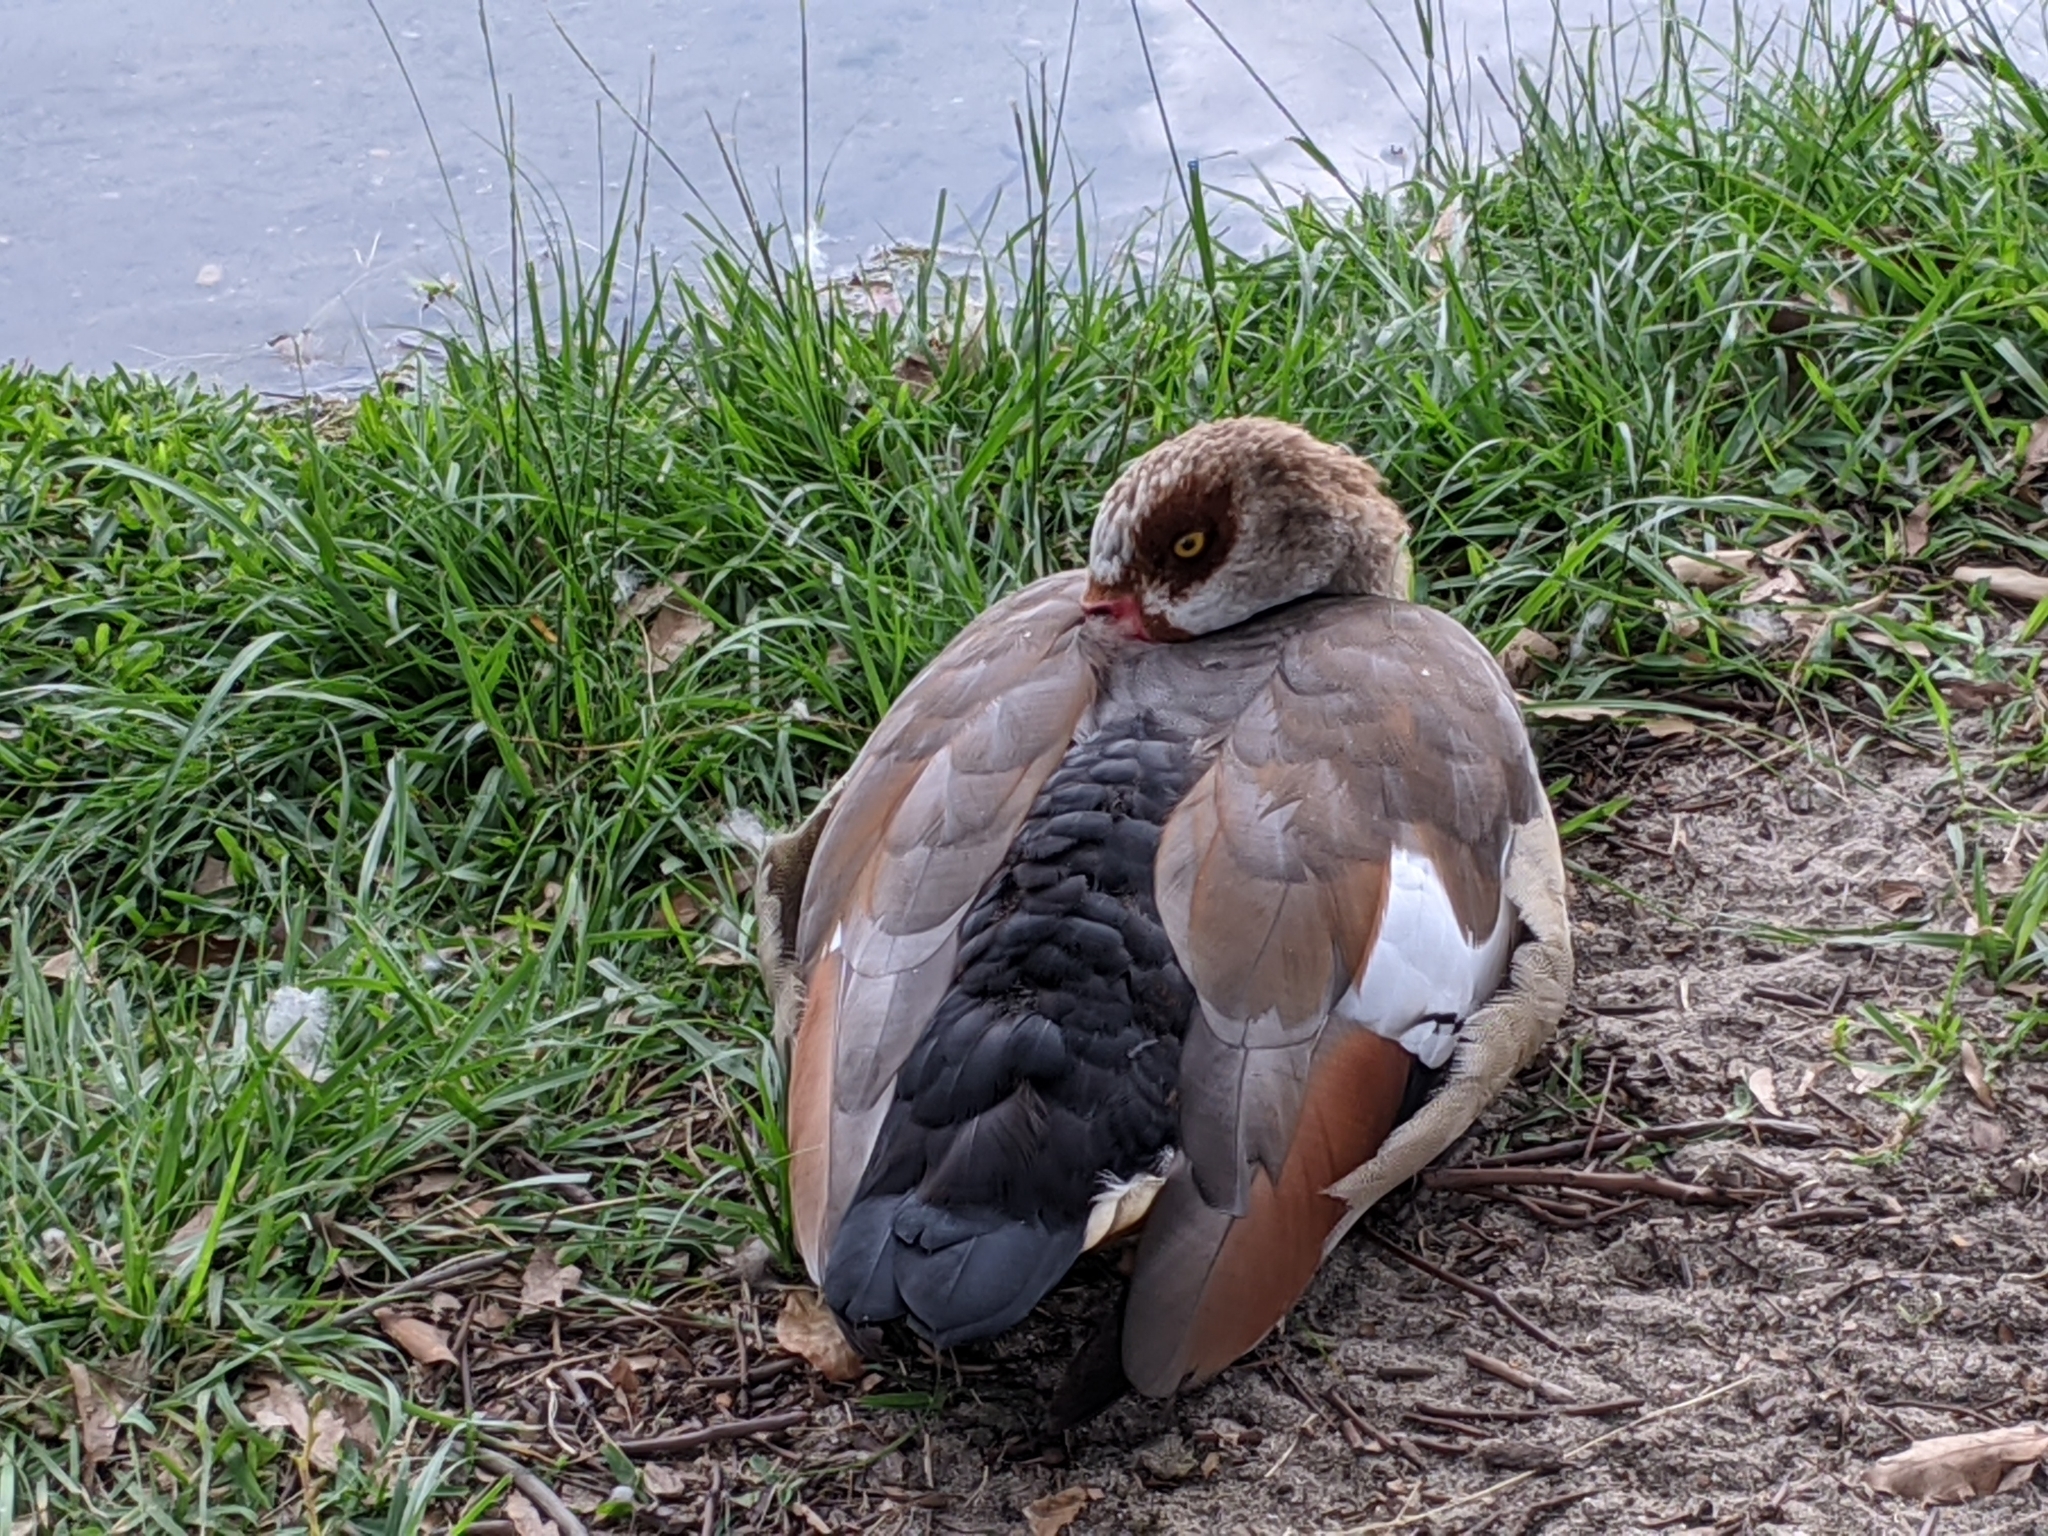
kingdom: Animalia
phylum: Chordata
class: Aves
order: Anseriformes
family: Anatidae
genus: Alopochen
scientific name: Alopochen aegyptiaca
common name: Egyptian goose
